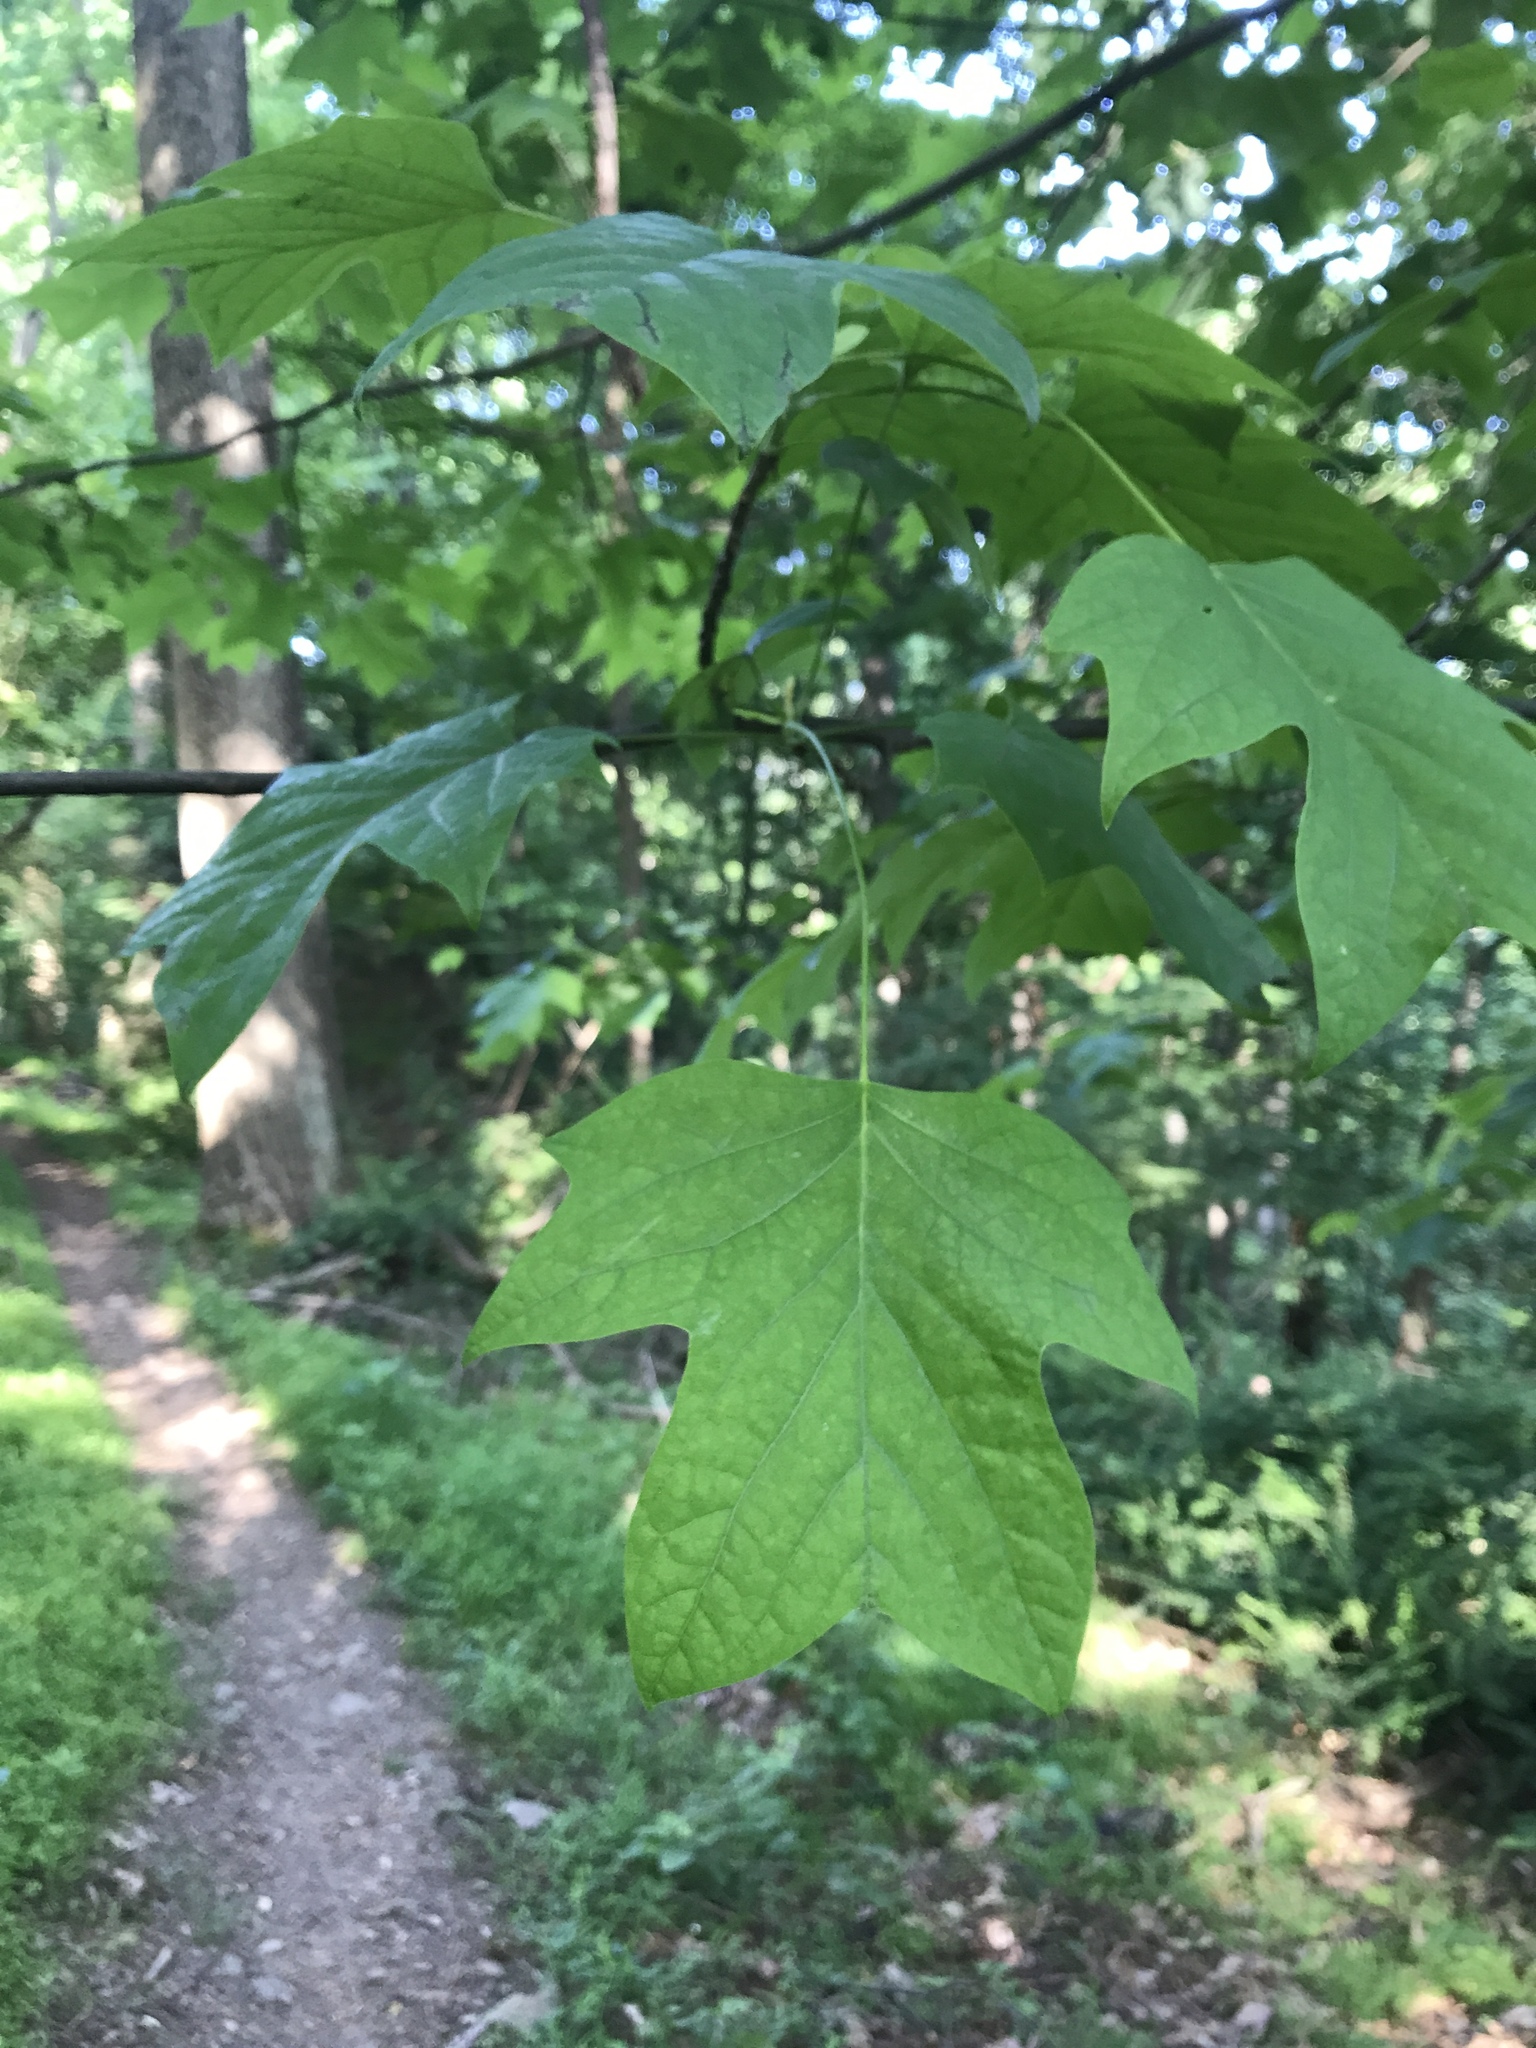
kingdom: Plantae
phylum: Tracheophyta
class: Magnoliopsida
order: Magnoliales
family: Magnoliaceae
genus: Liriodendron
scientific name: Liriodendron tulipifera
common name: Tulip tree
